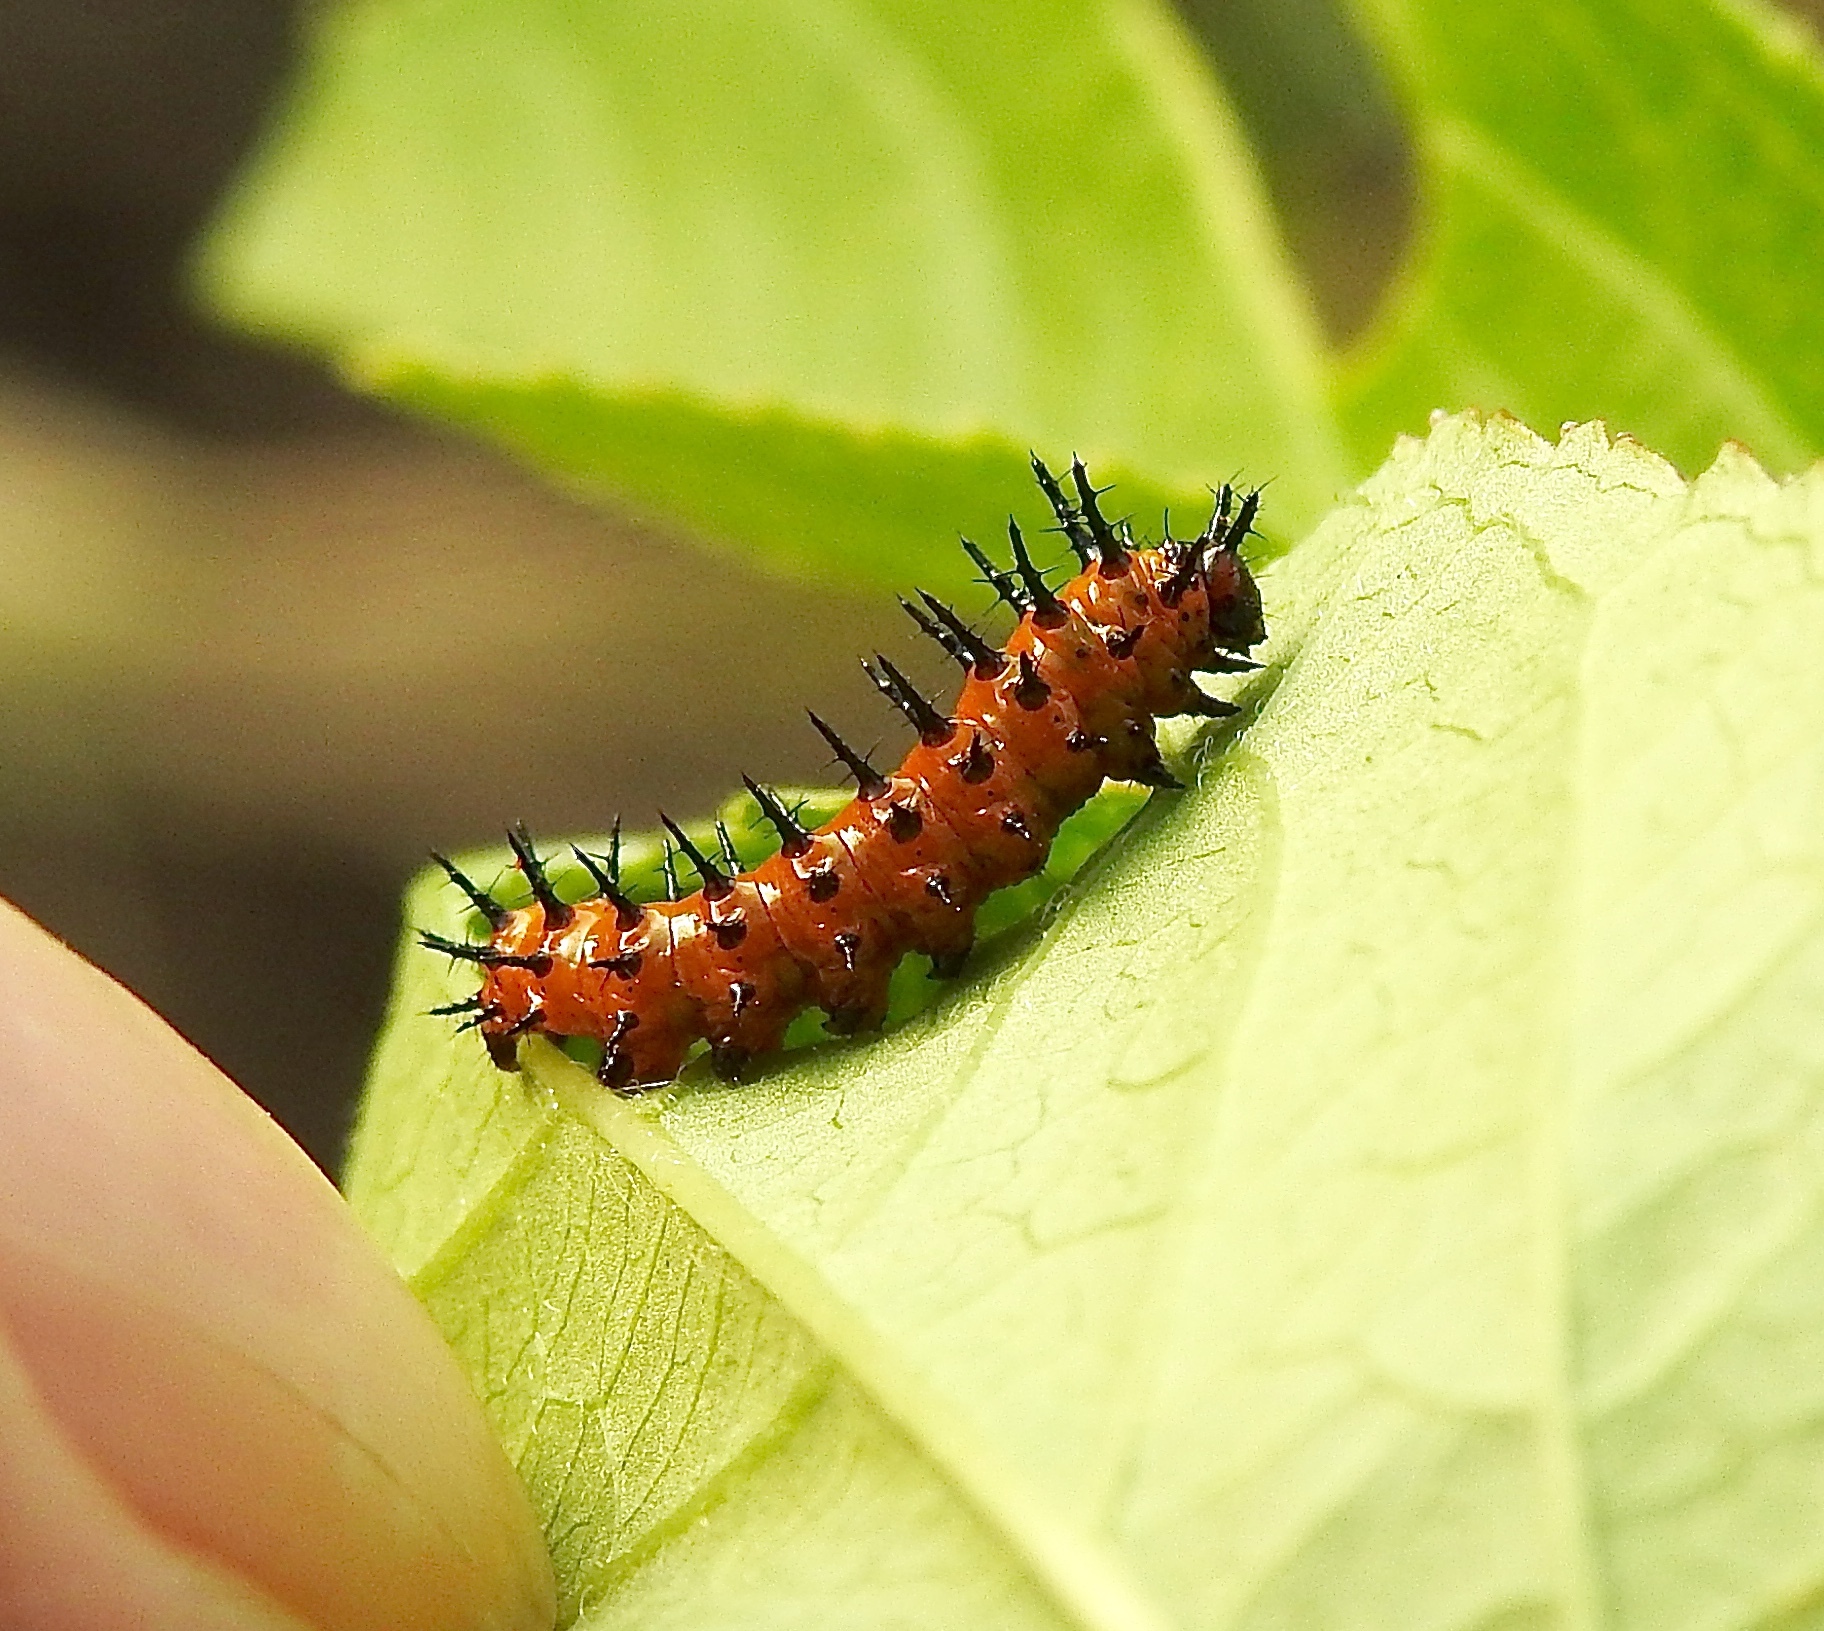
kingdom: Animalia
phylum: Arthropoda
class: Insecta
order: Lepidoptera
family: Nymphalidae
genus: Dione
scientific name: Dione vanillae
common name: Gulf fritillary
